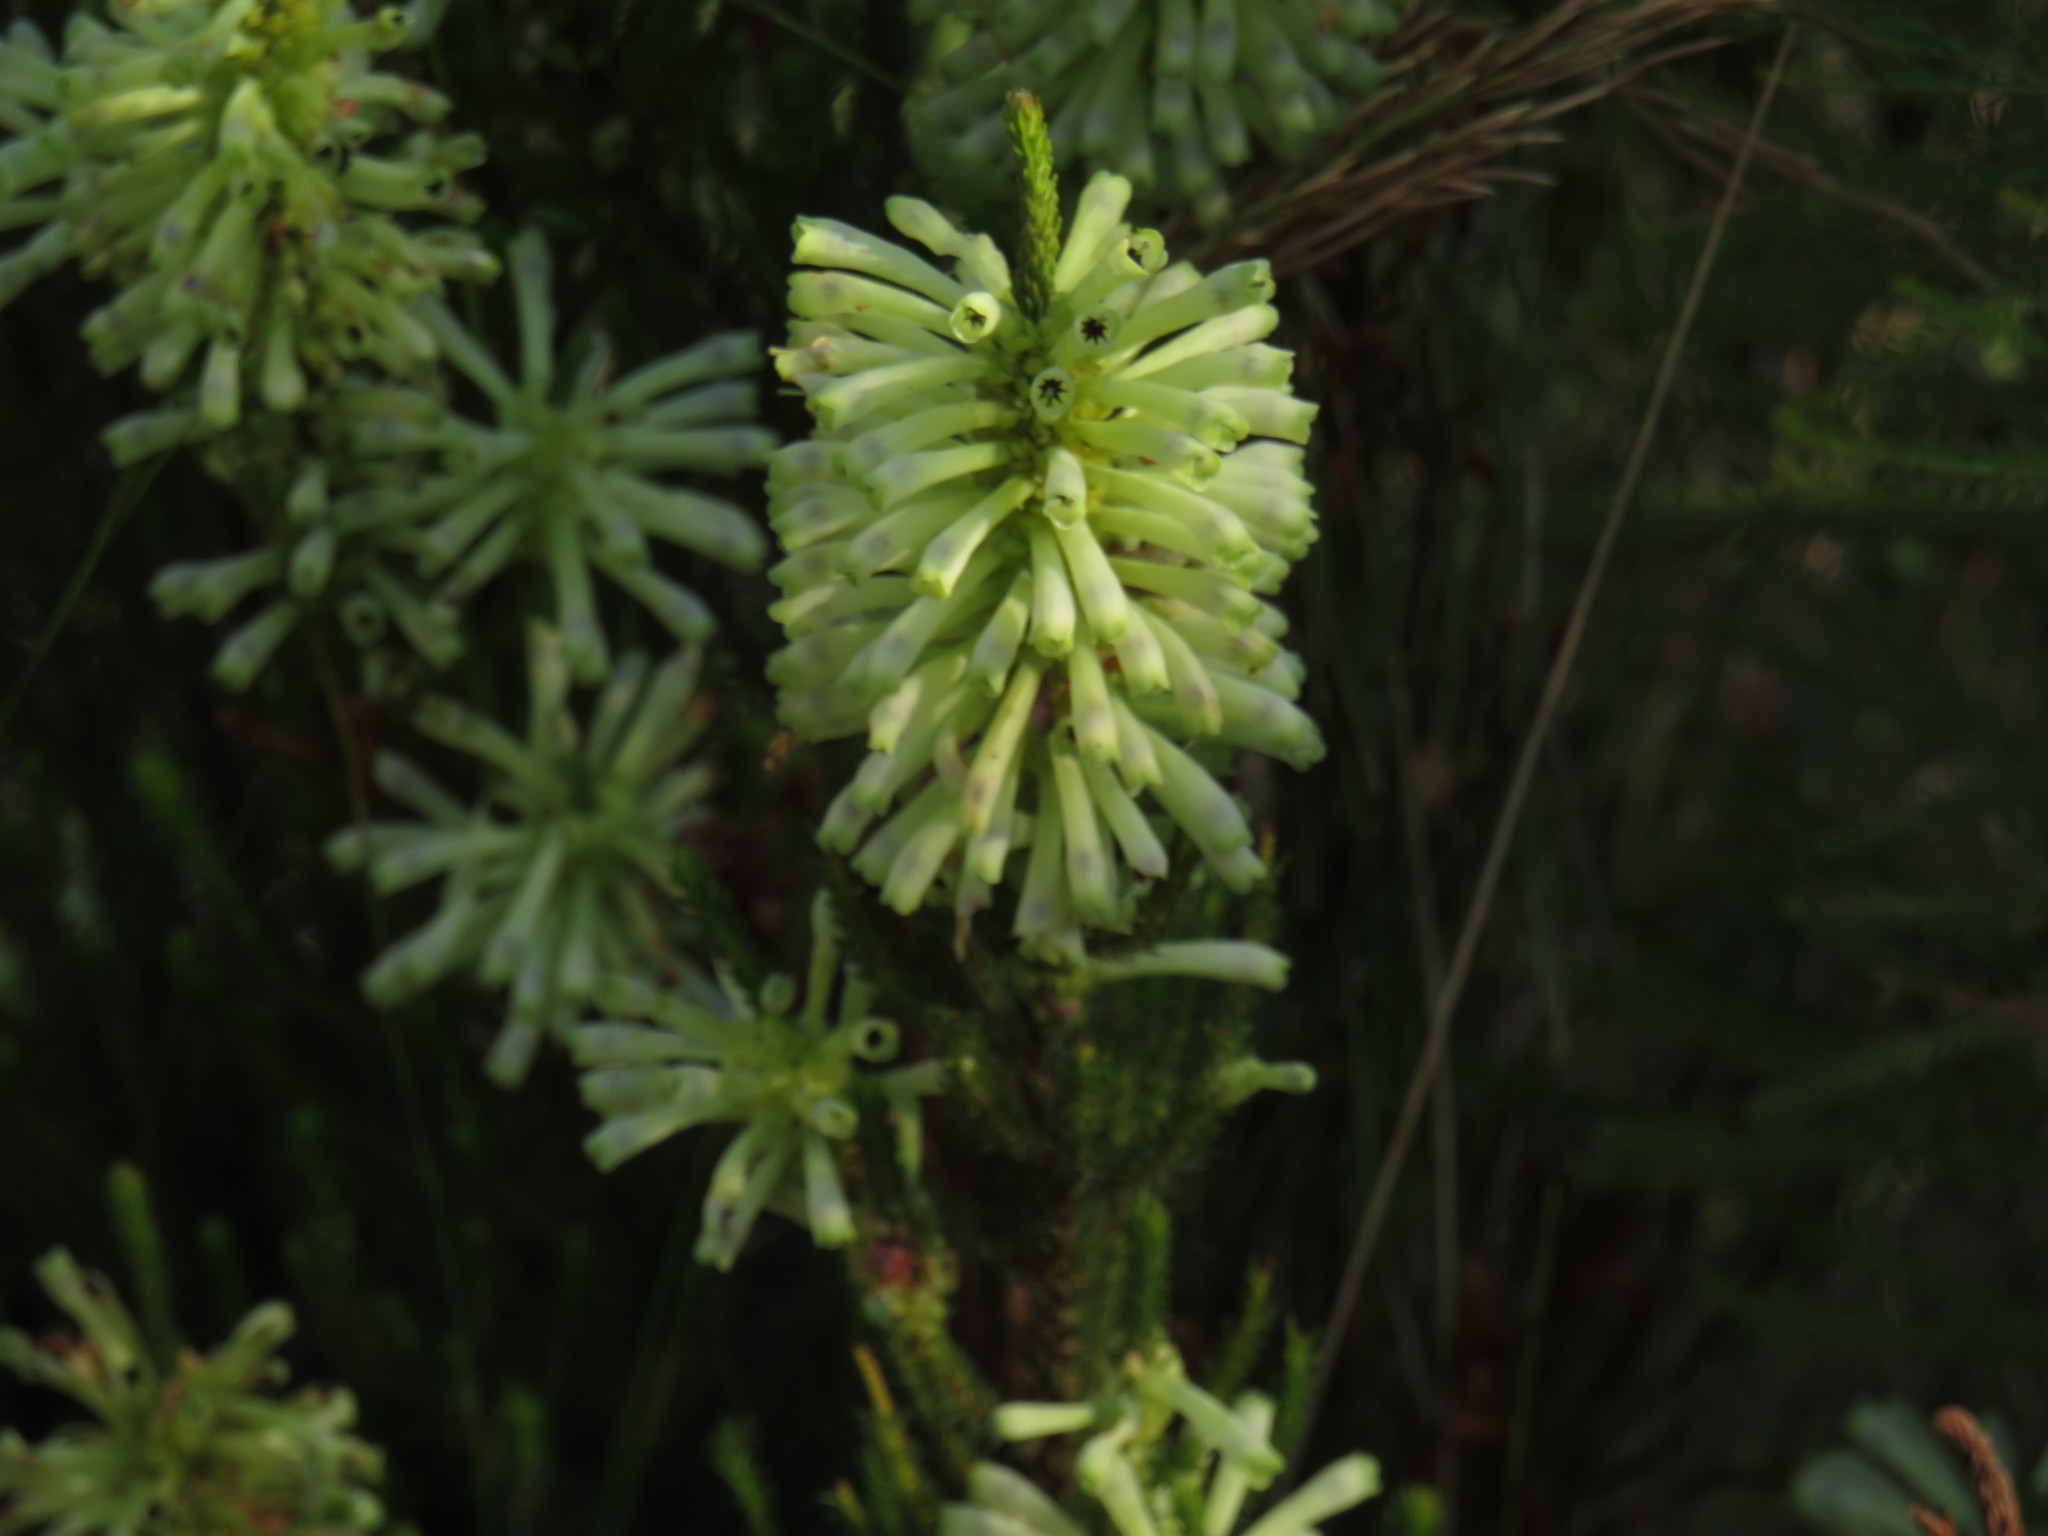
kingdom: Plantae
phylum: Tracheophyta
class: Magnoliopsida
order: Ericales
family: Ericaceae
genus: Erica
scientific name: Erica sessiliflora
